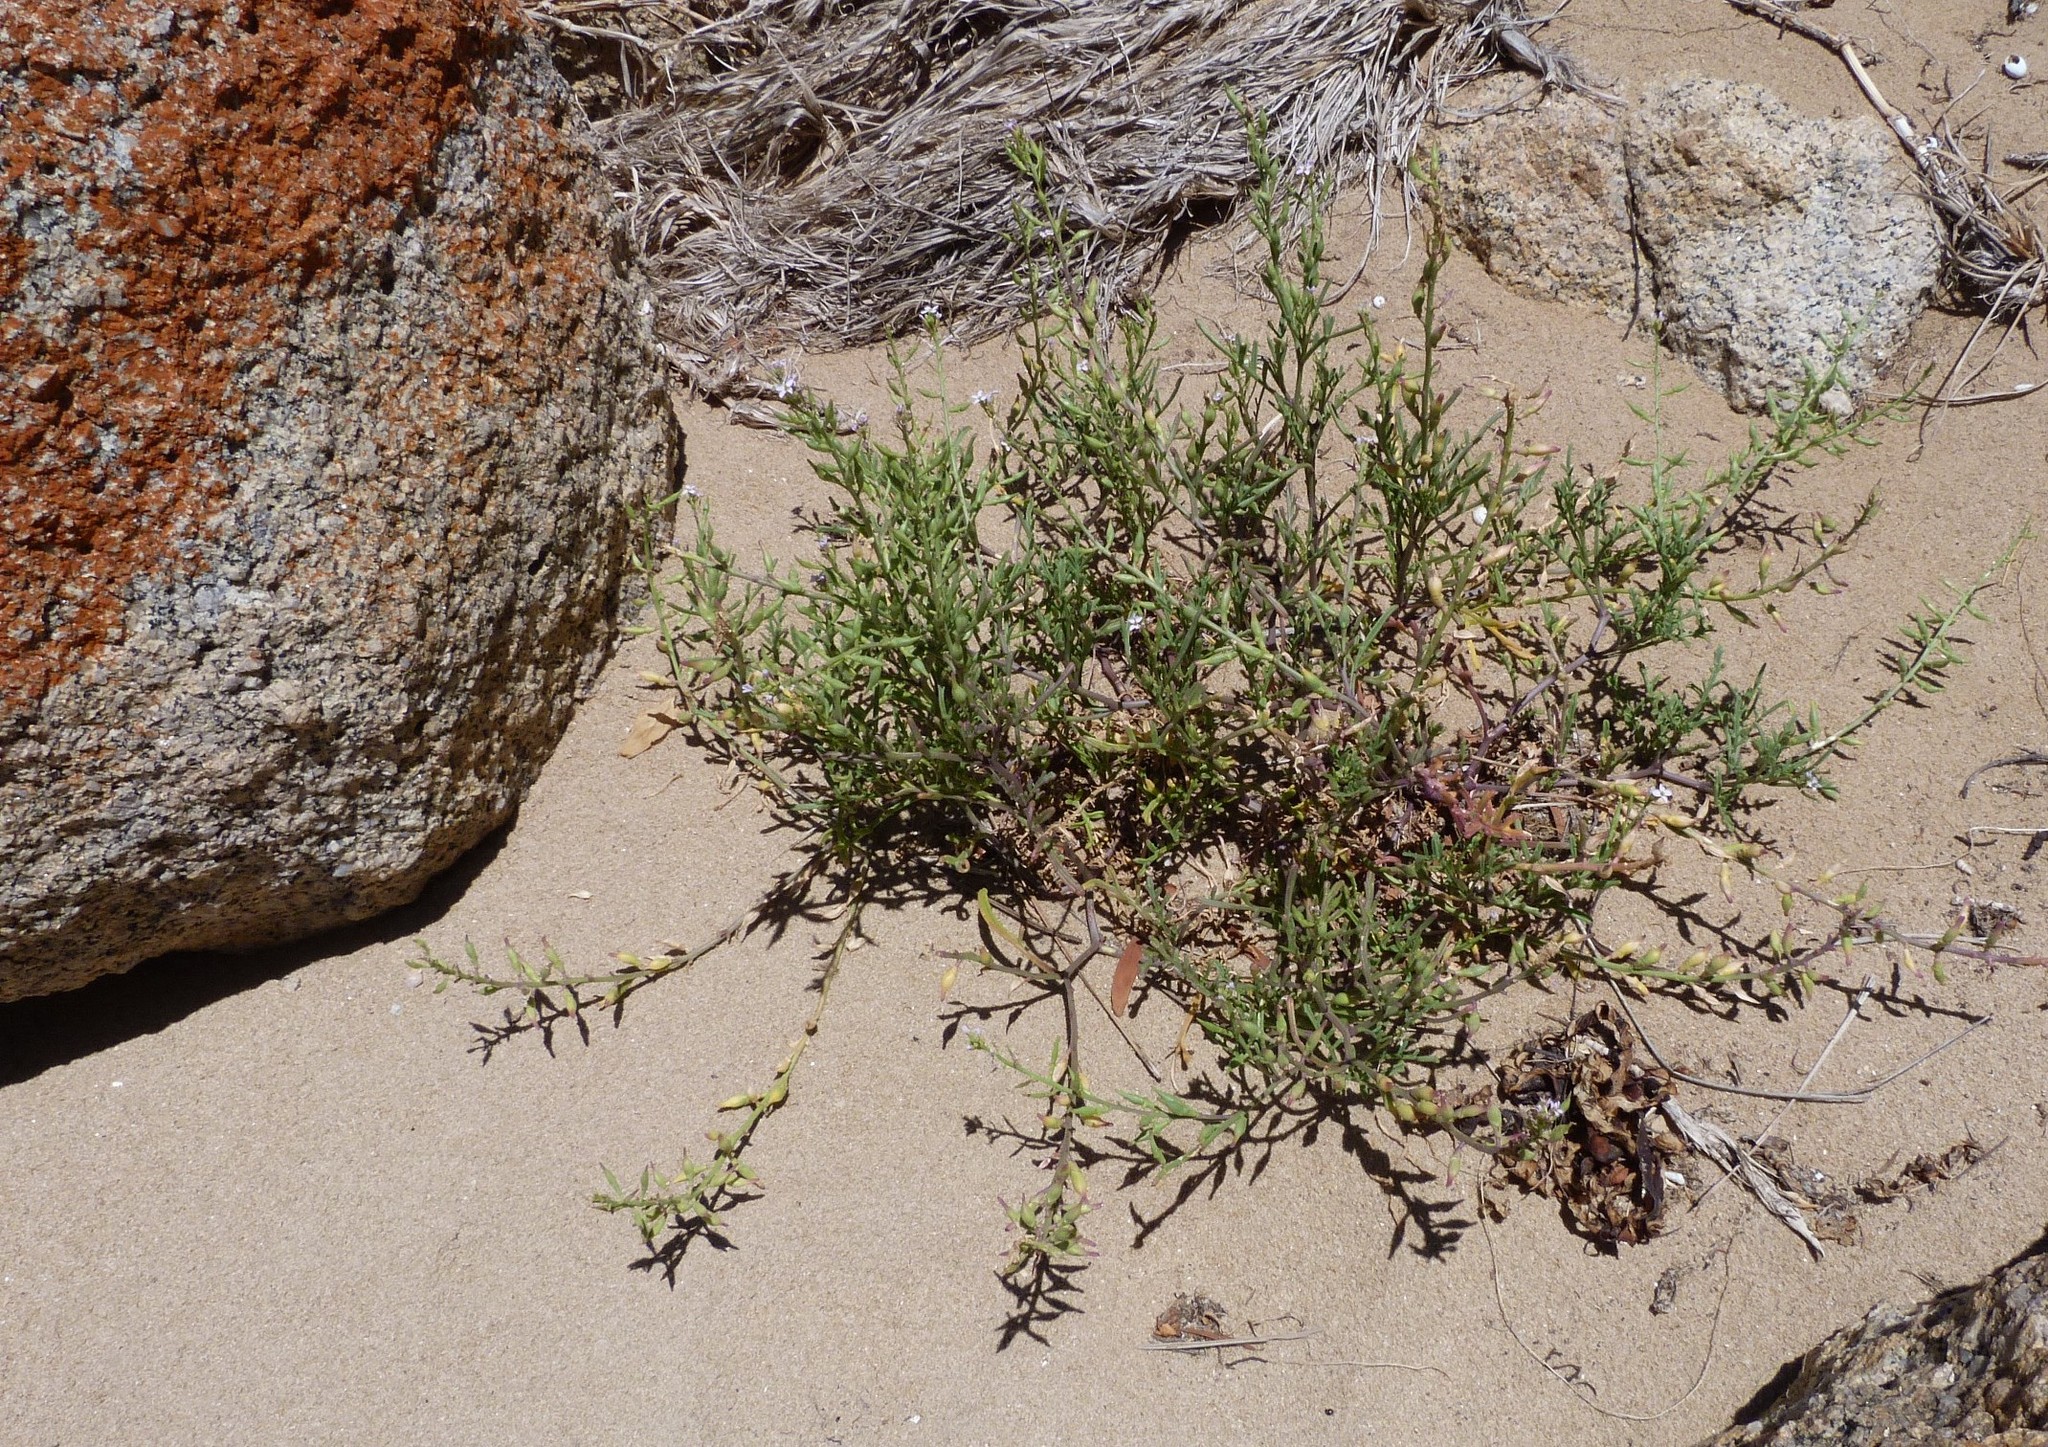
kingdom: Plantae
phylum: Tracheophyta
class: Magnoliopsida
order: Brassicales
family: Brassicaceae
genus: Cakile
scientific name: Cakile maritima
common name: Sea rocket
